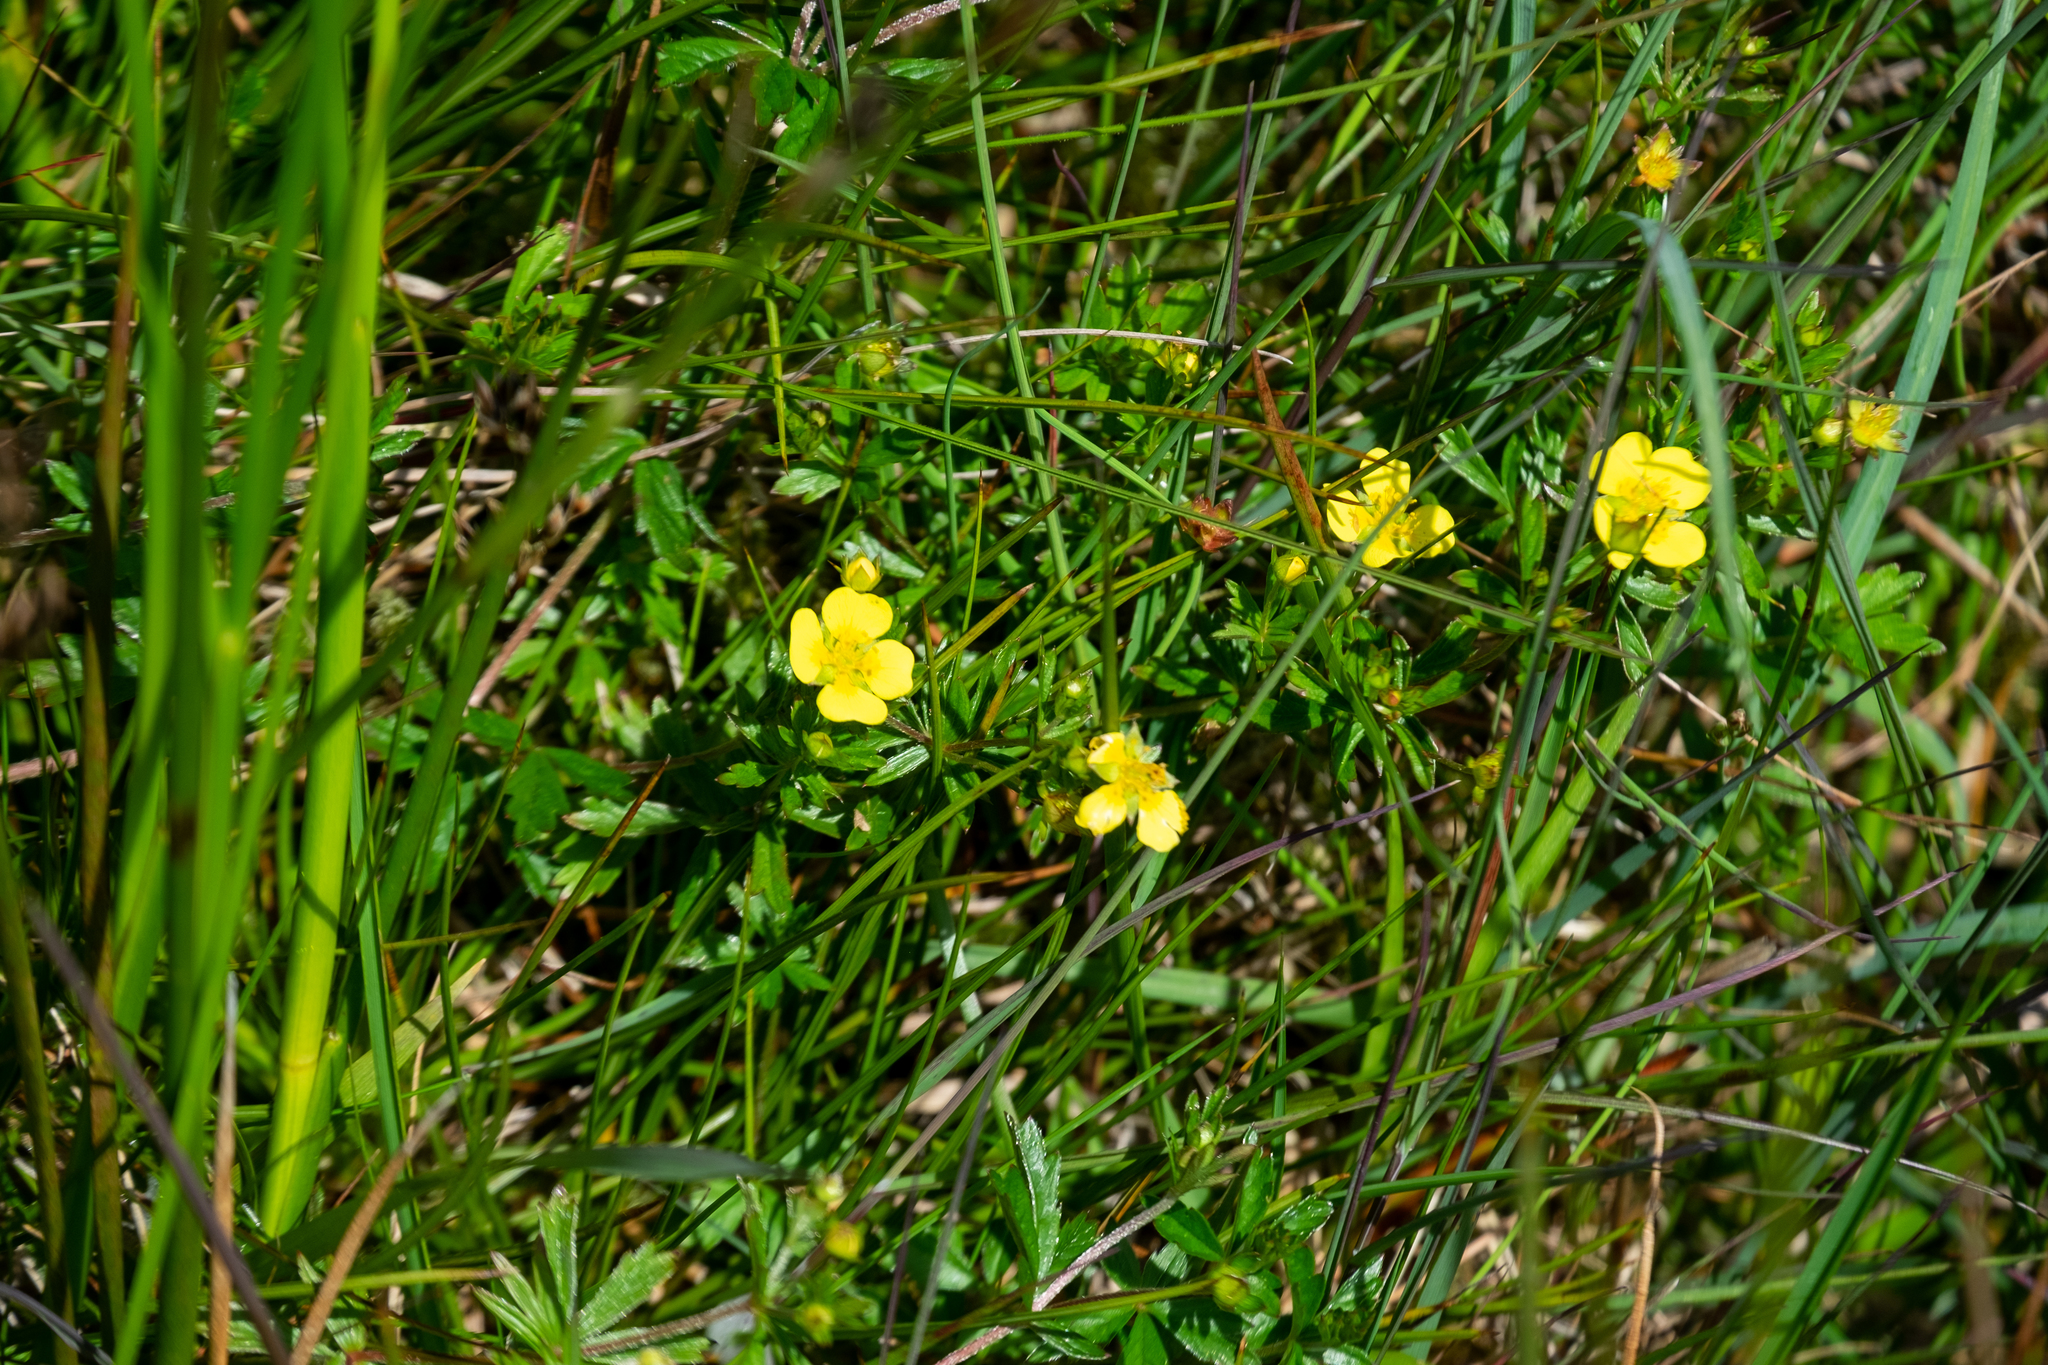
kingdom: Plantae
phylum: Tracheophyta
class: Magnoliopsida
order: Rosales
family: Rosaceae
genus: Potentilla
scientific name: Potentilla erecta
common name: Tormentil
